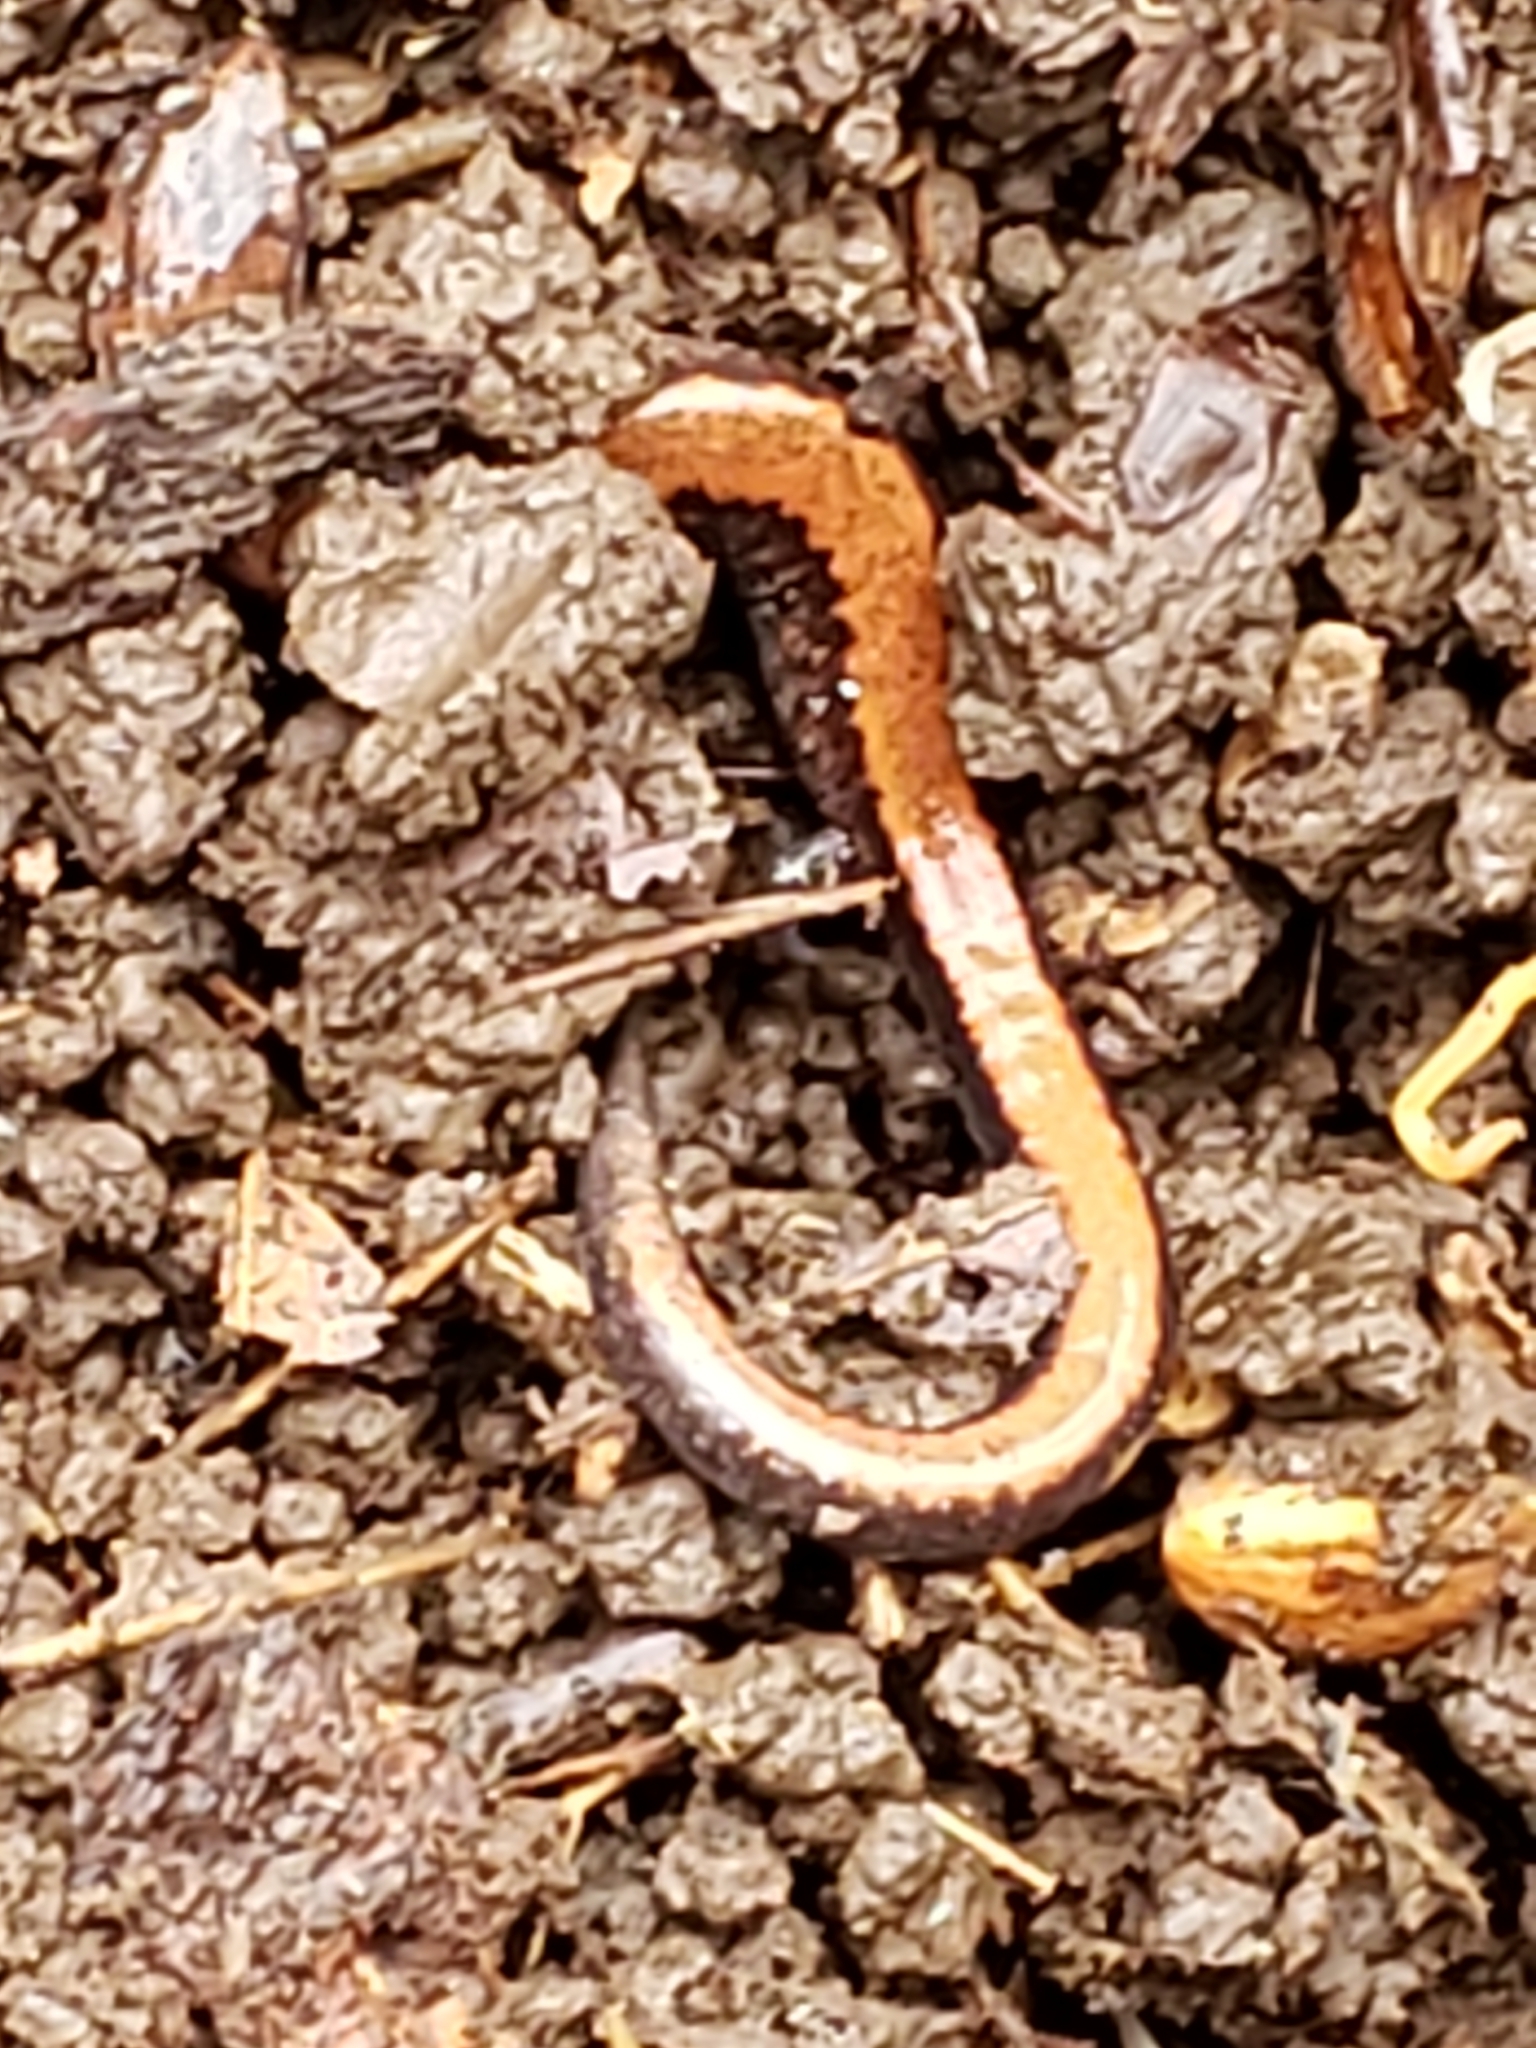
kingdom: Animalia
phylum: Chordata
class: Amphibia
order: Caudata
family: Plethodontidae
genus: Plethodon
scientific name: Plethodon cinereus
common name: Redback salamander
